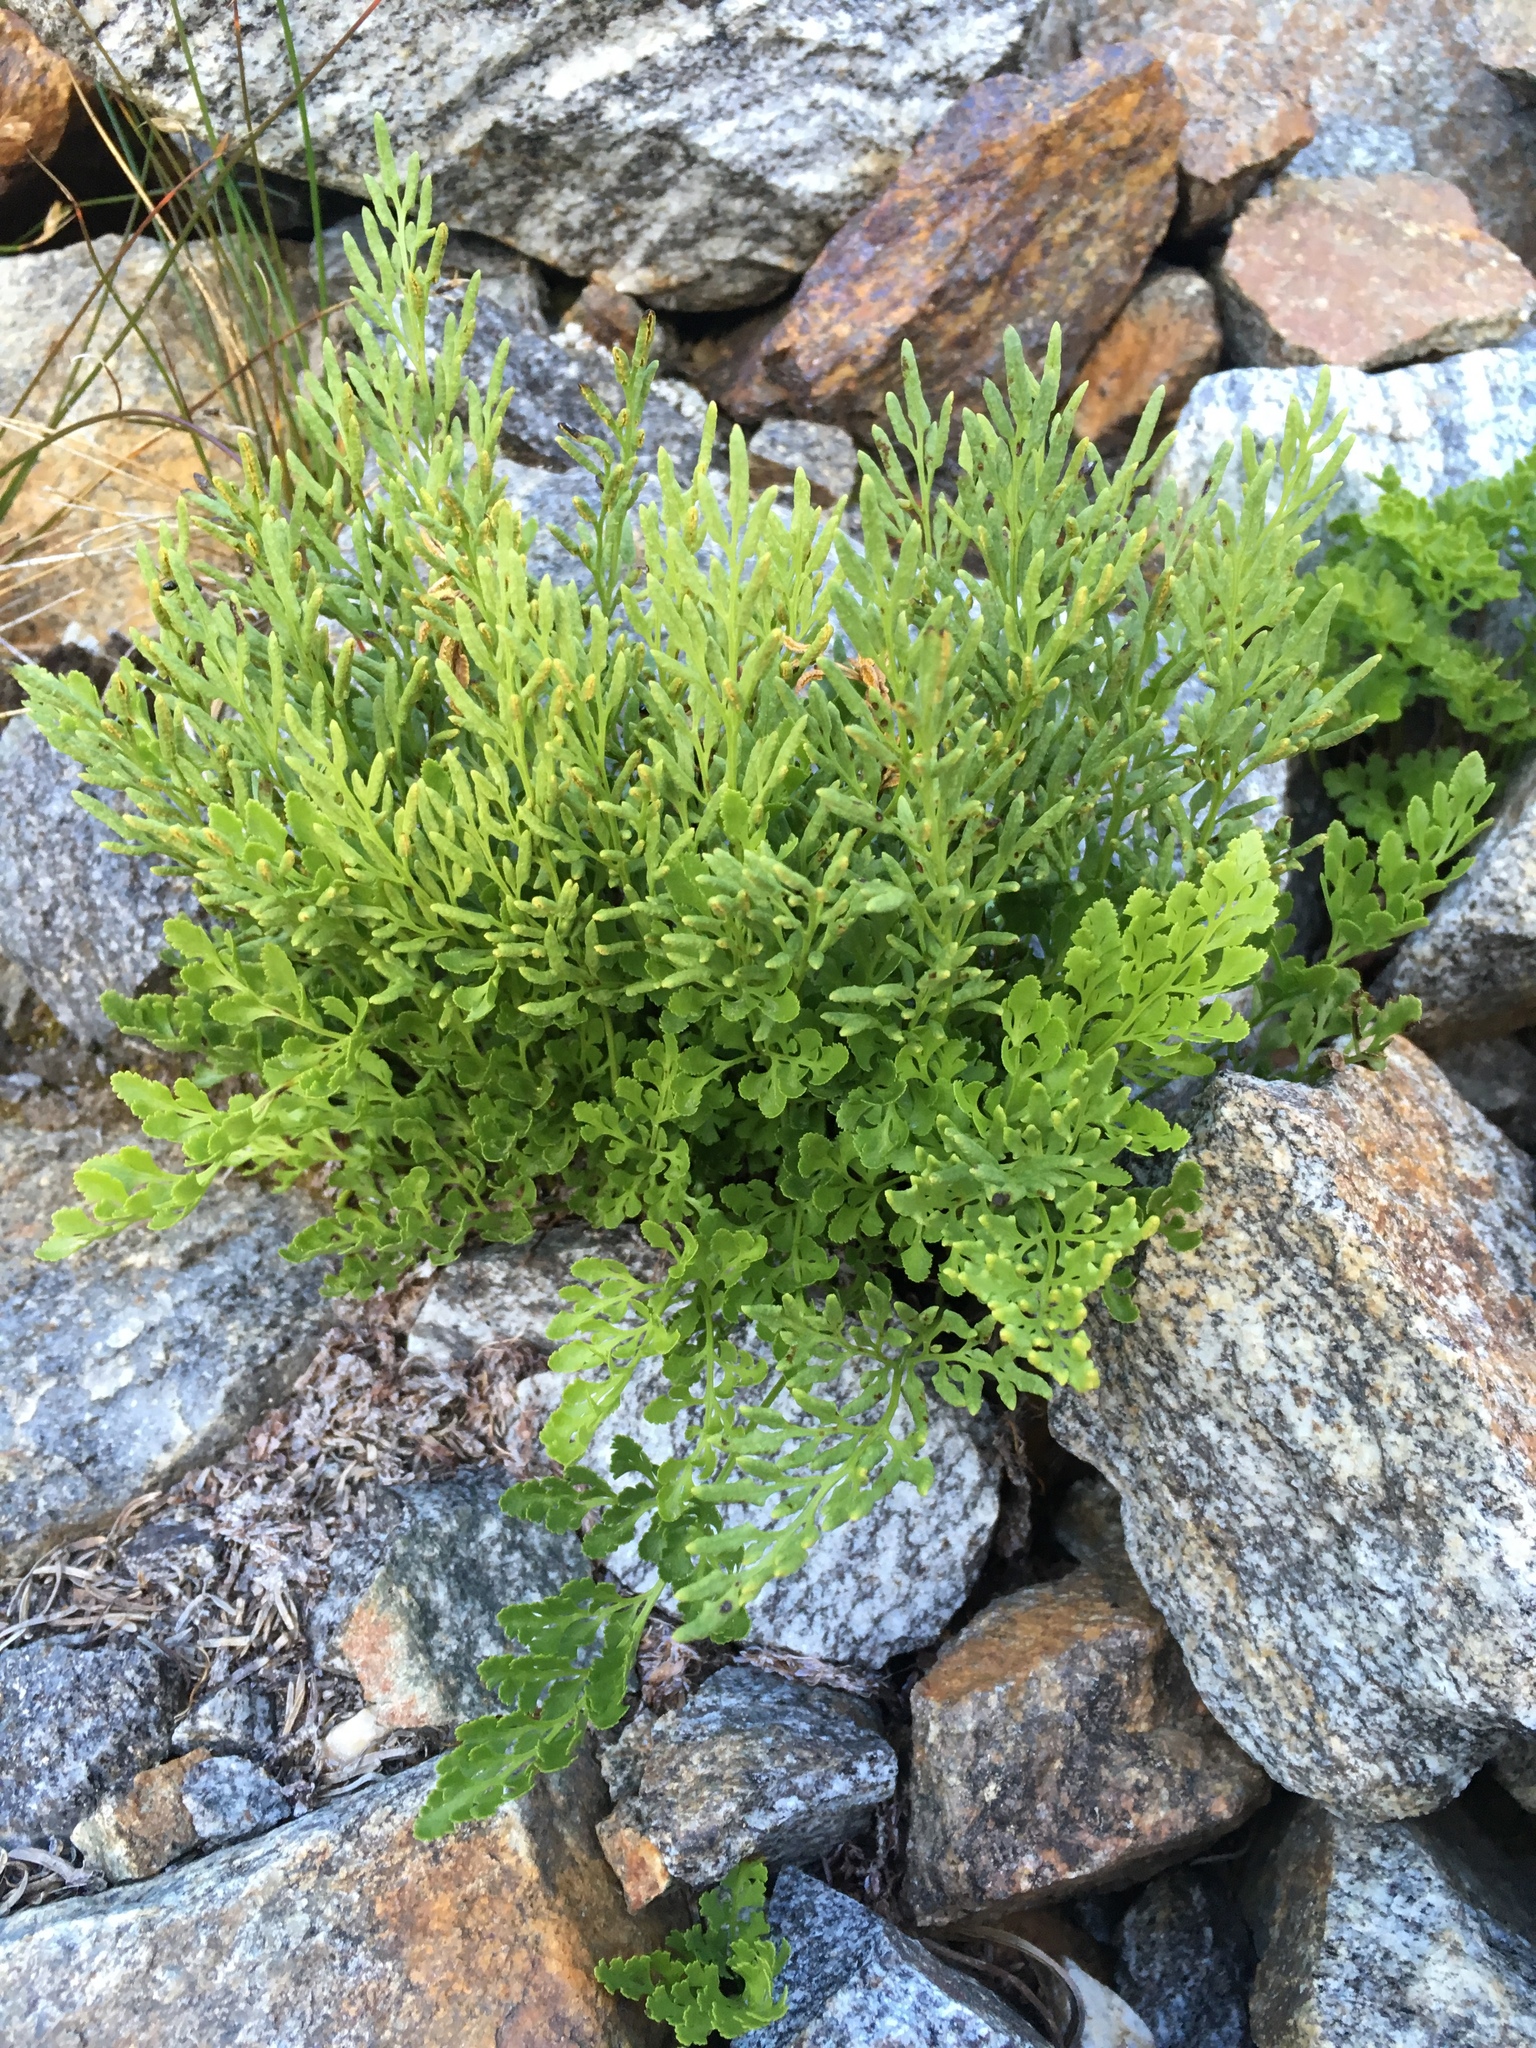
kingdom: Plantae
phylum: Tracheophyta
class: Polypodiopsida
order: Polypodiales
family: Pteridaceae
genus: Cryptogramma
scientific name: Cryptogramma cascadensis
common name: Cascade parsley fern
